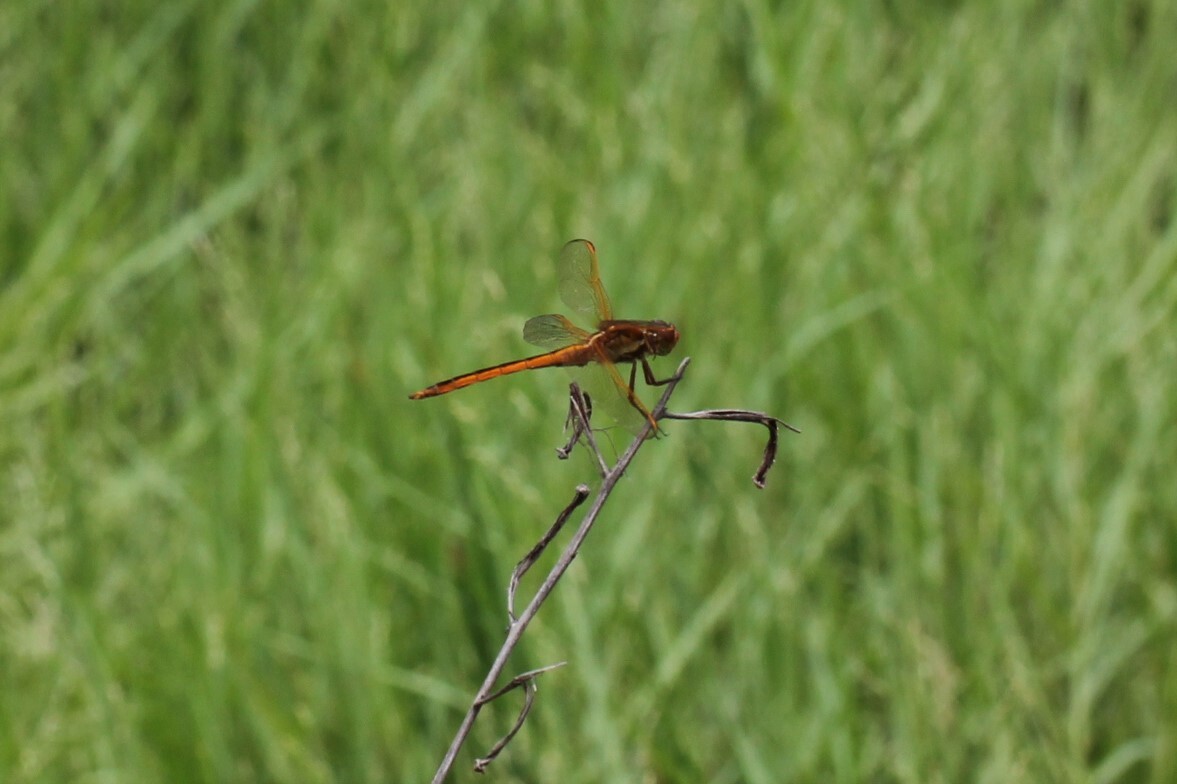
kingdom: Animalia
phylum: Arthropoda
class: Insecta
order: Odonata
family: Libellulidae
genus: Libellula
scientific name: Libellula needhami
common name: Needham's skimmer
